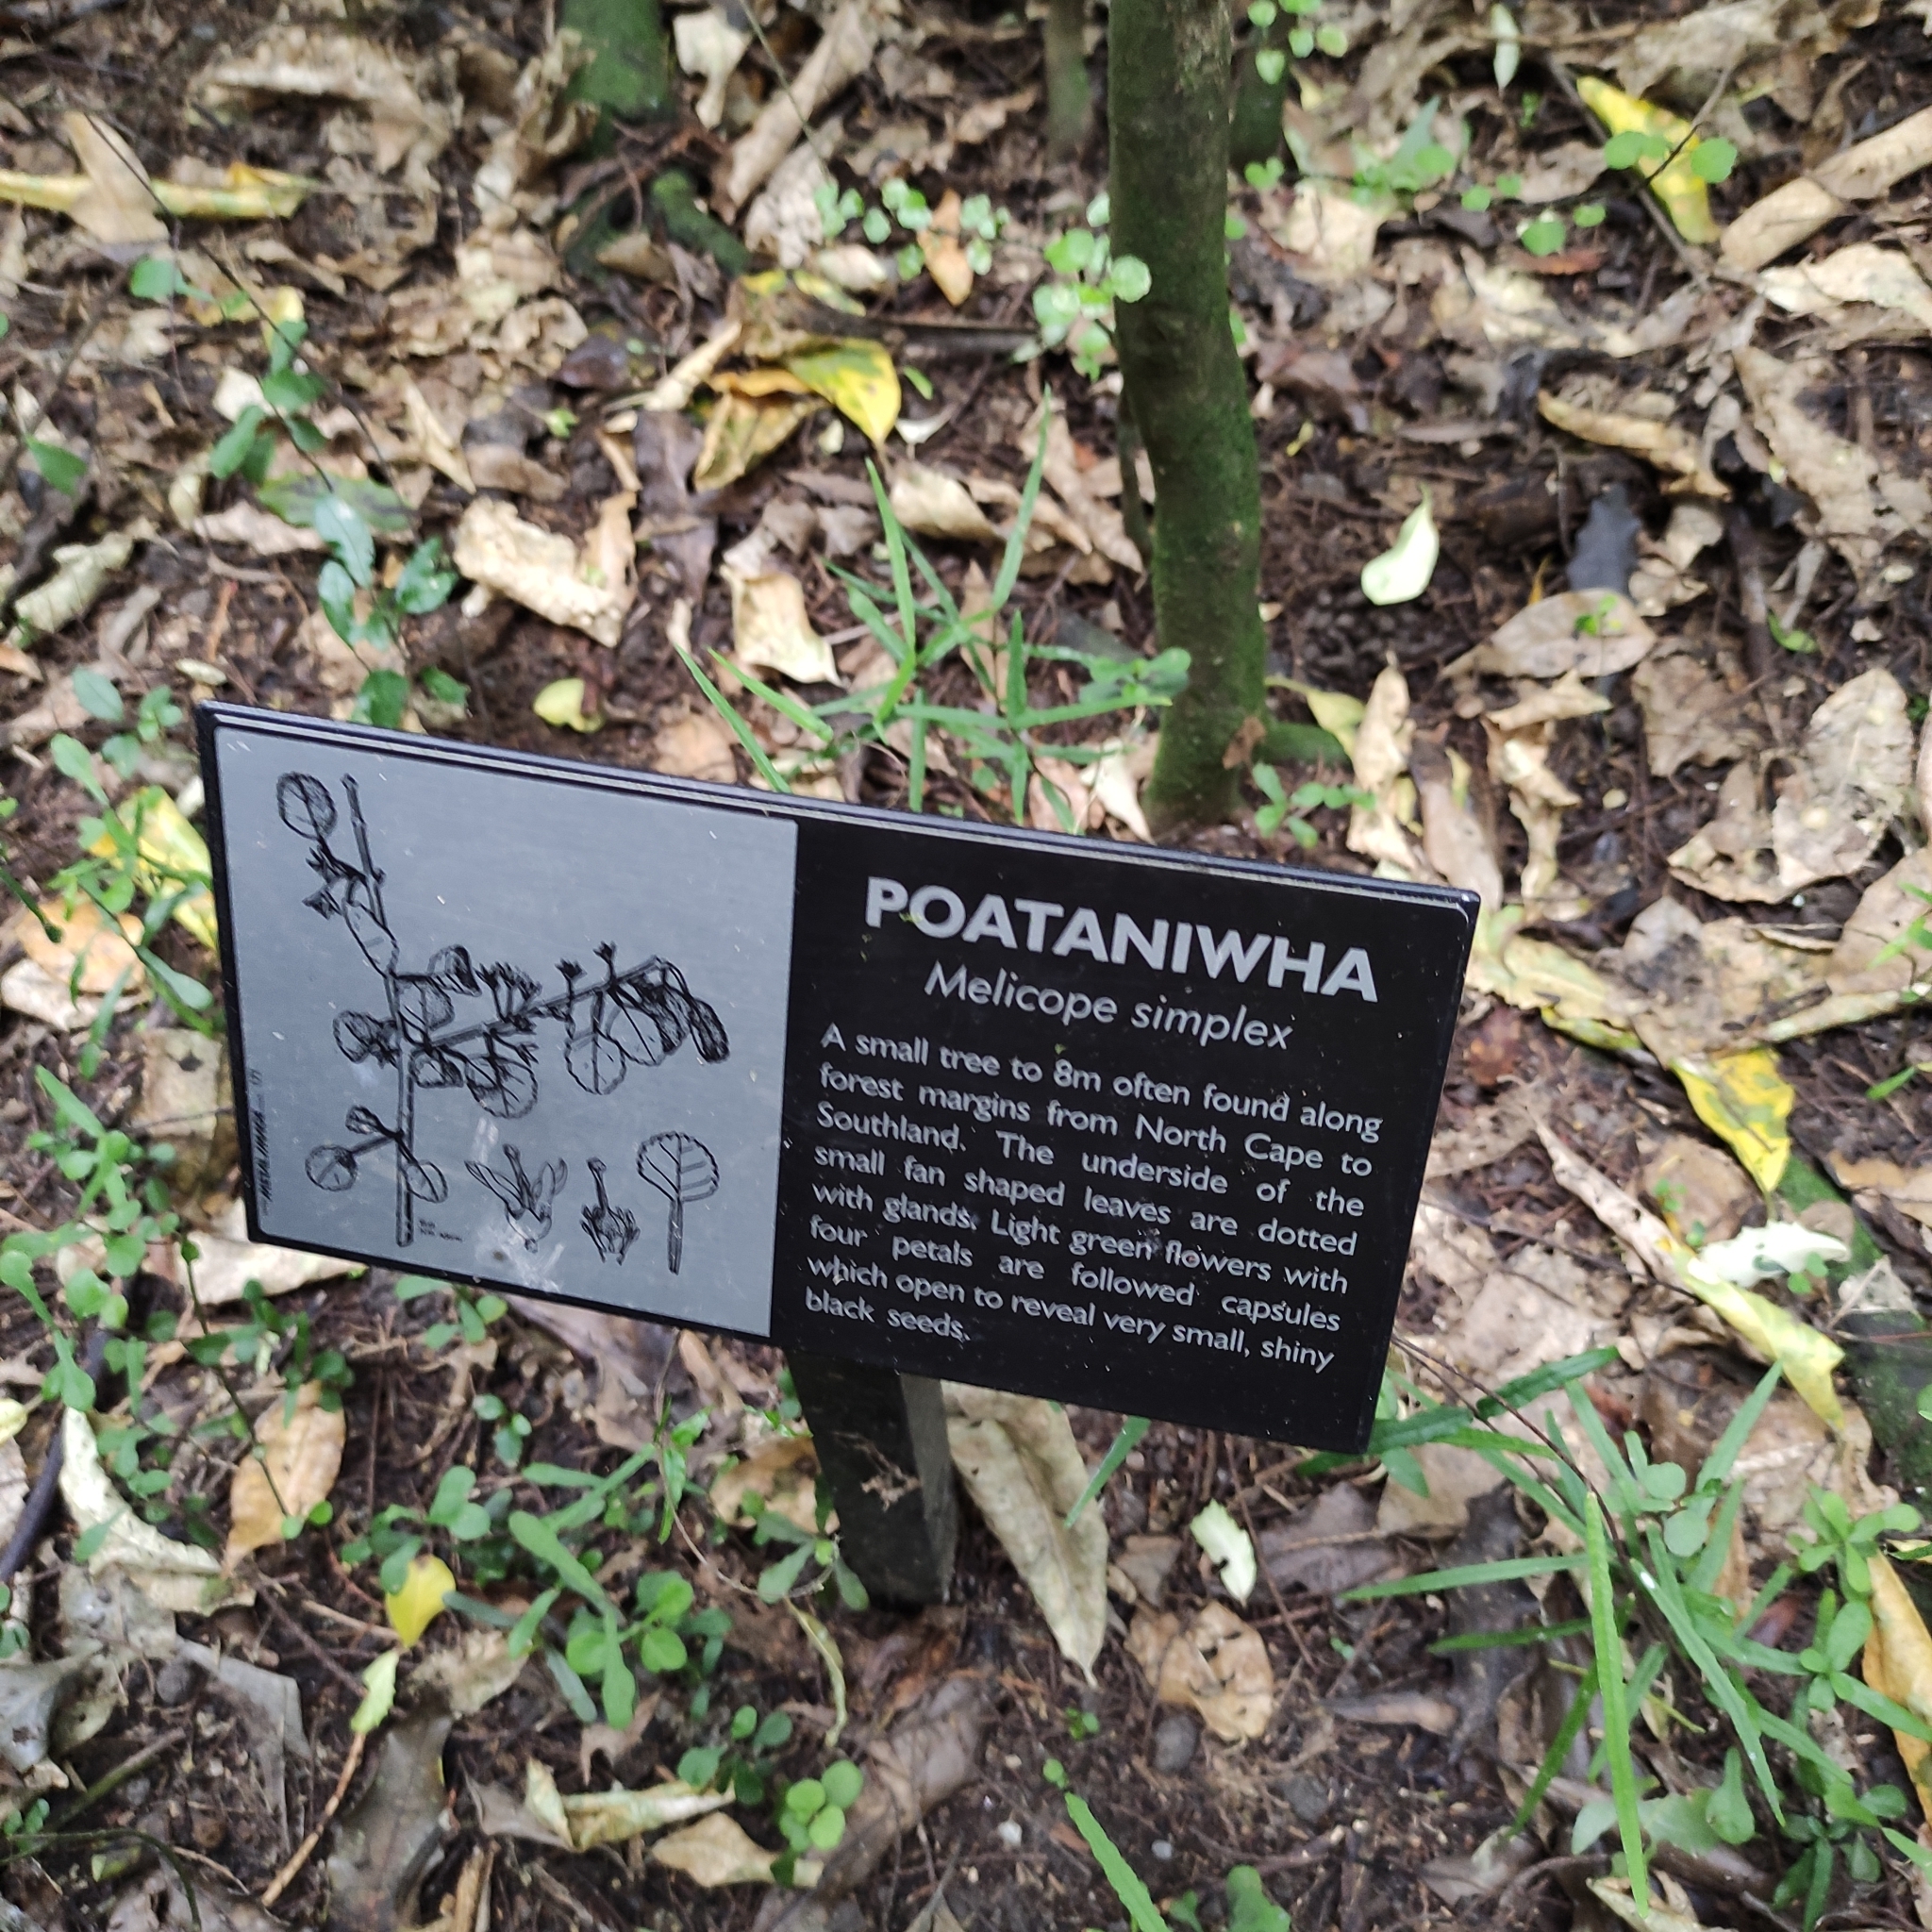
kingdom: Plantae
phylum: Tracheophyta
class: Magnoliopsida
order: Sapindales
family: Rutaceae
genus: Melicope
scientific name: Melicope simplex
